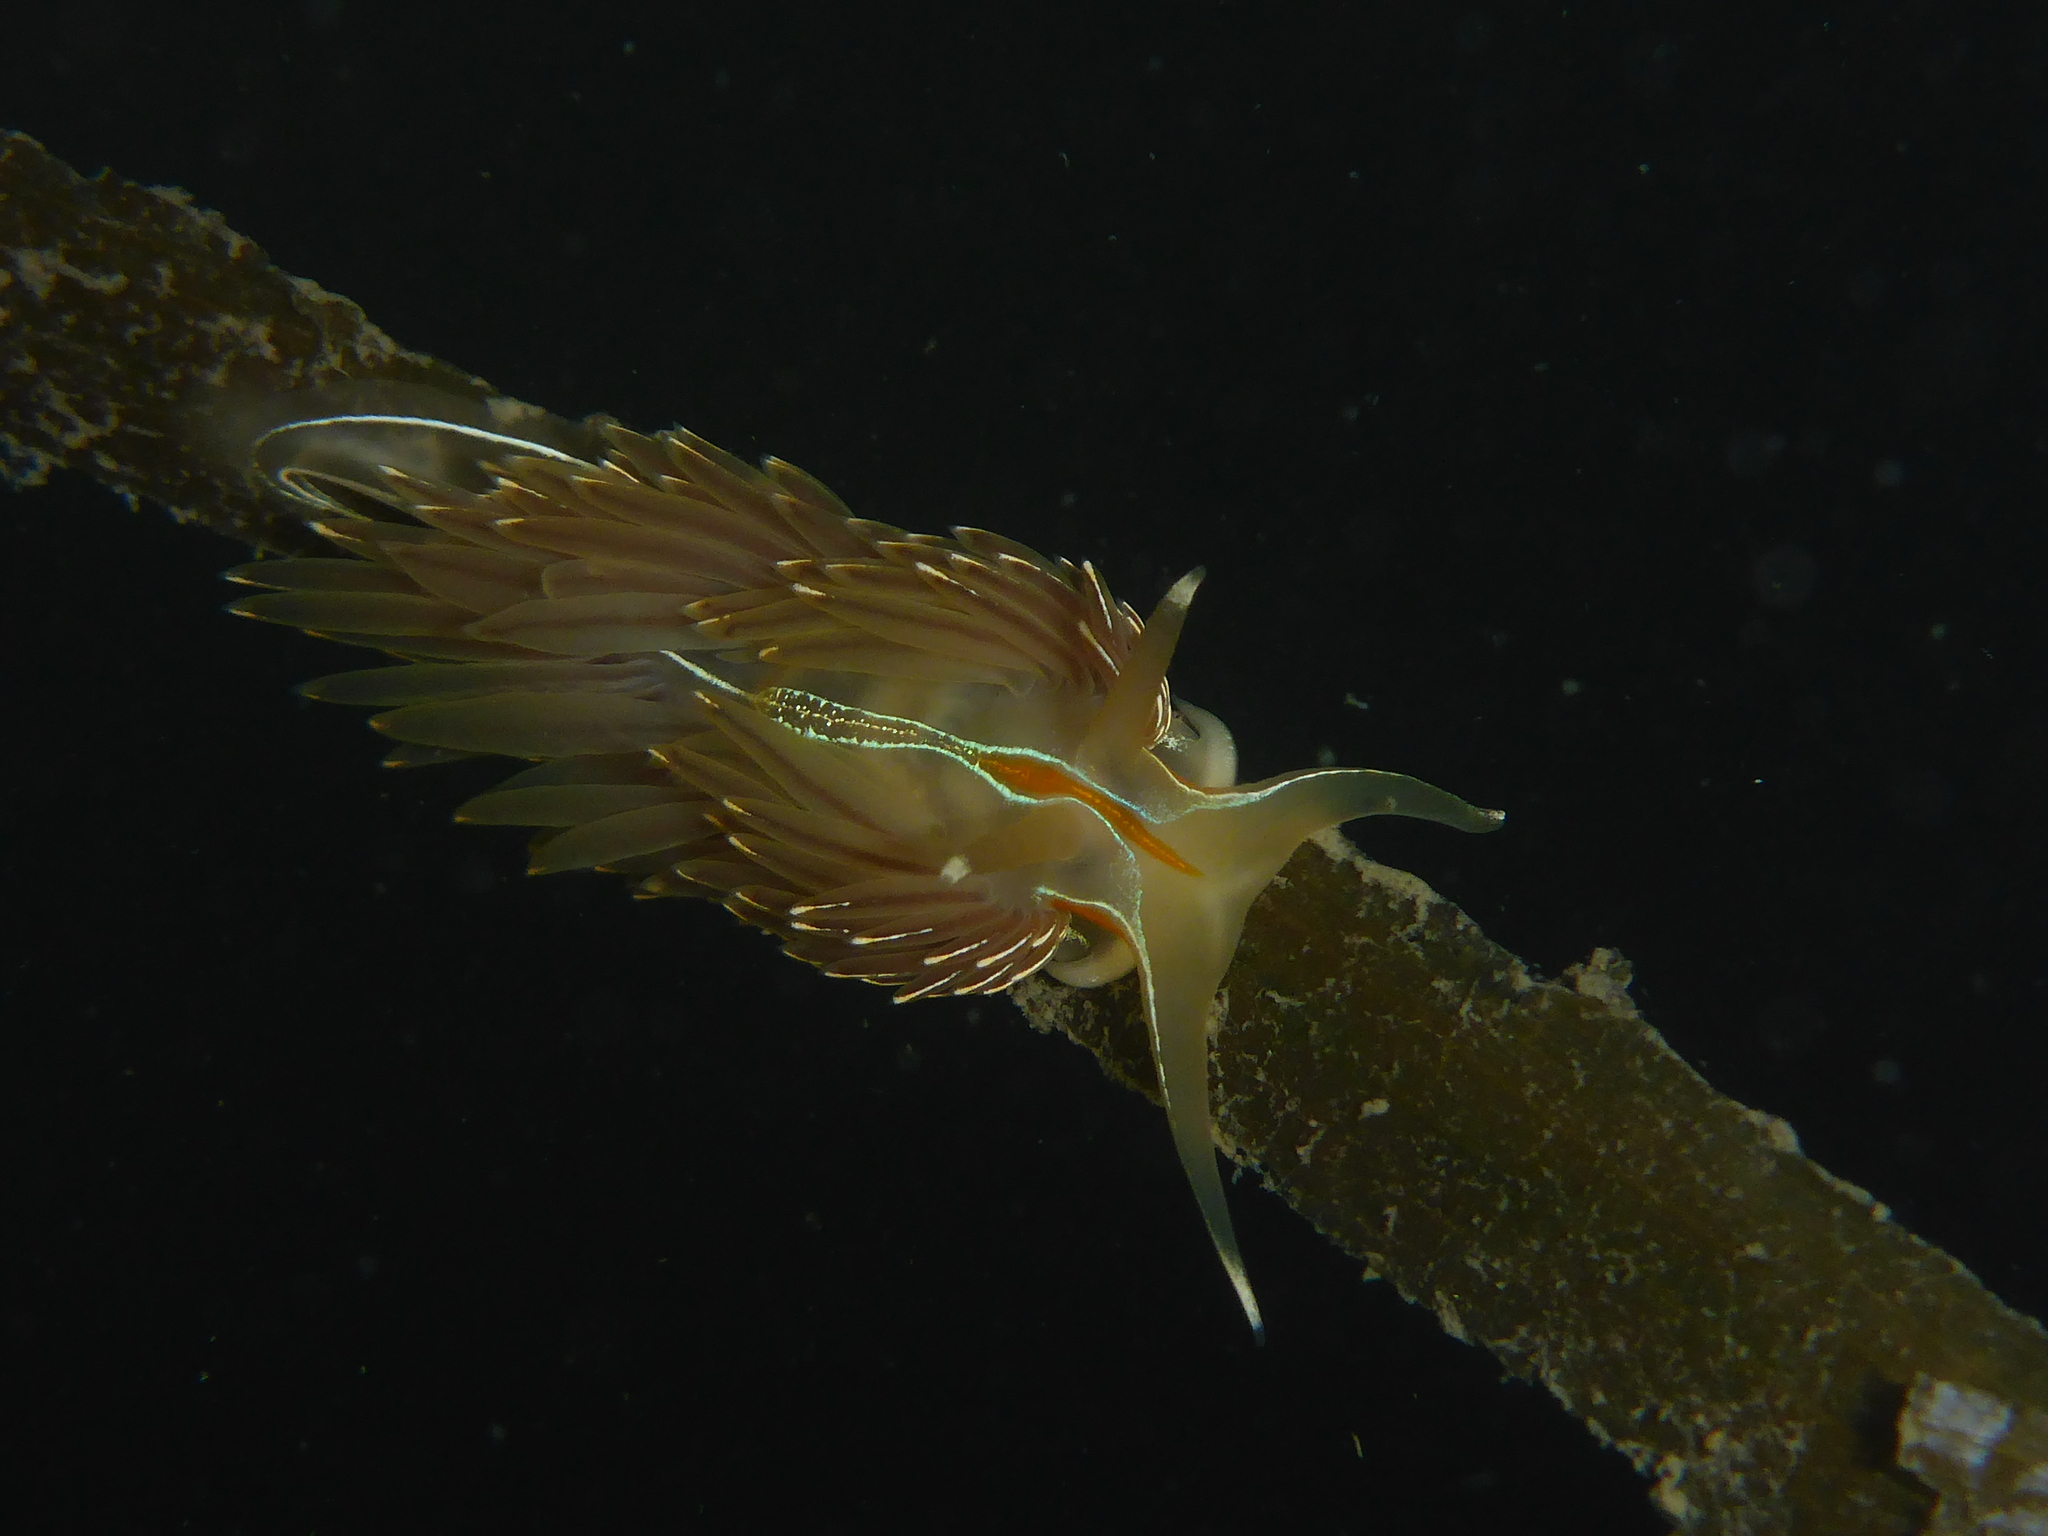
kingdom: Animalia
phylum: Mollusca
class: Gastropoda
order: Nudibranchia
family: Myrrhinidae
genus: Hermissenda
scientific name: Hermissenda crassicornis
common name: Hermissenda
